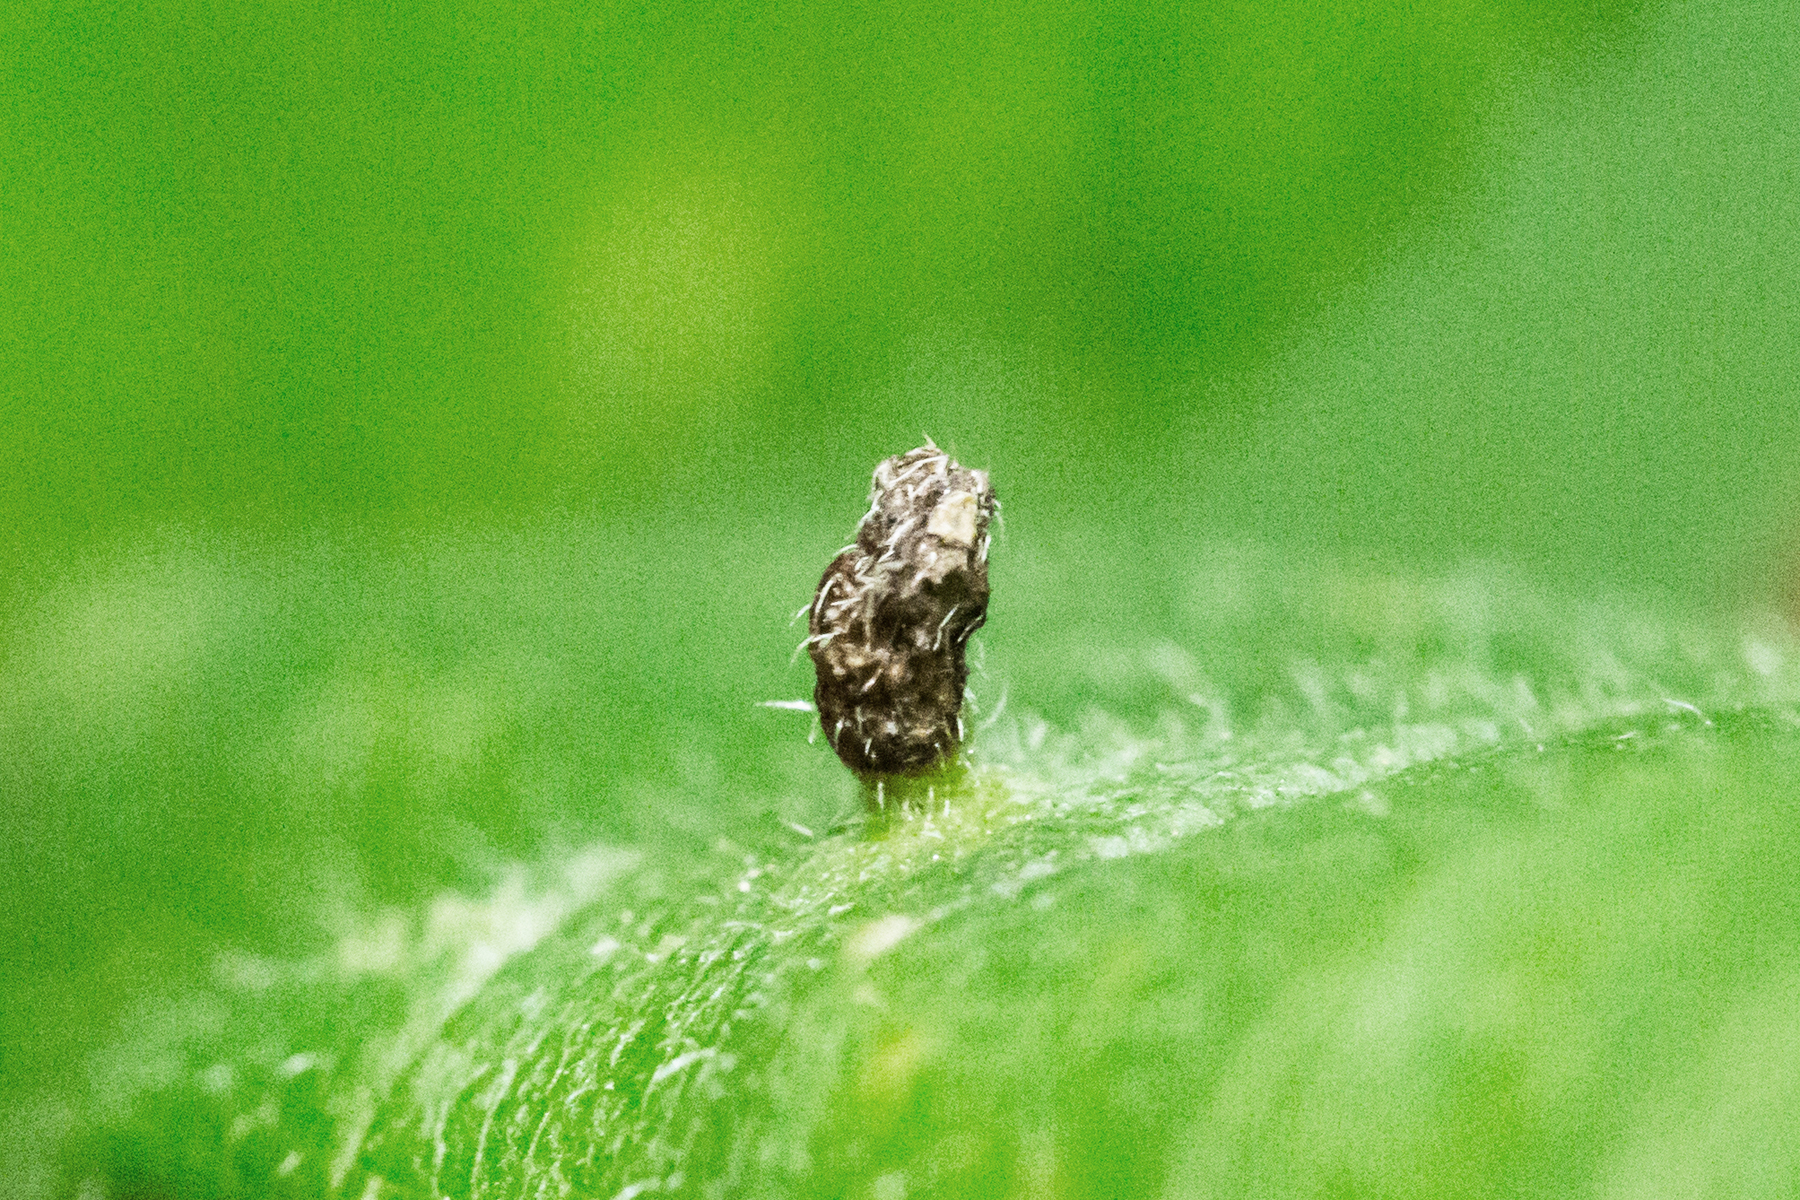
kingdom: Animalia
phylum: Arthropoda
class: Arachnida
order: Trombidiformes
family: Eriophyidae
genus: Aceria
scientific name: Aceria
